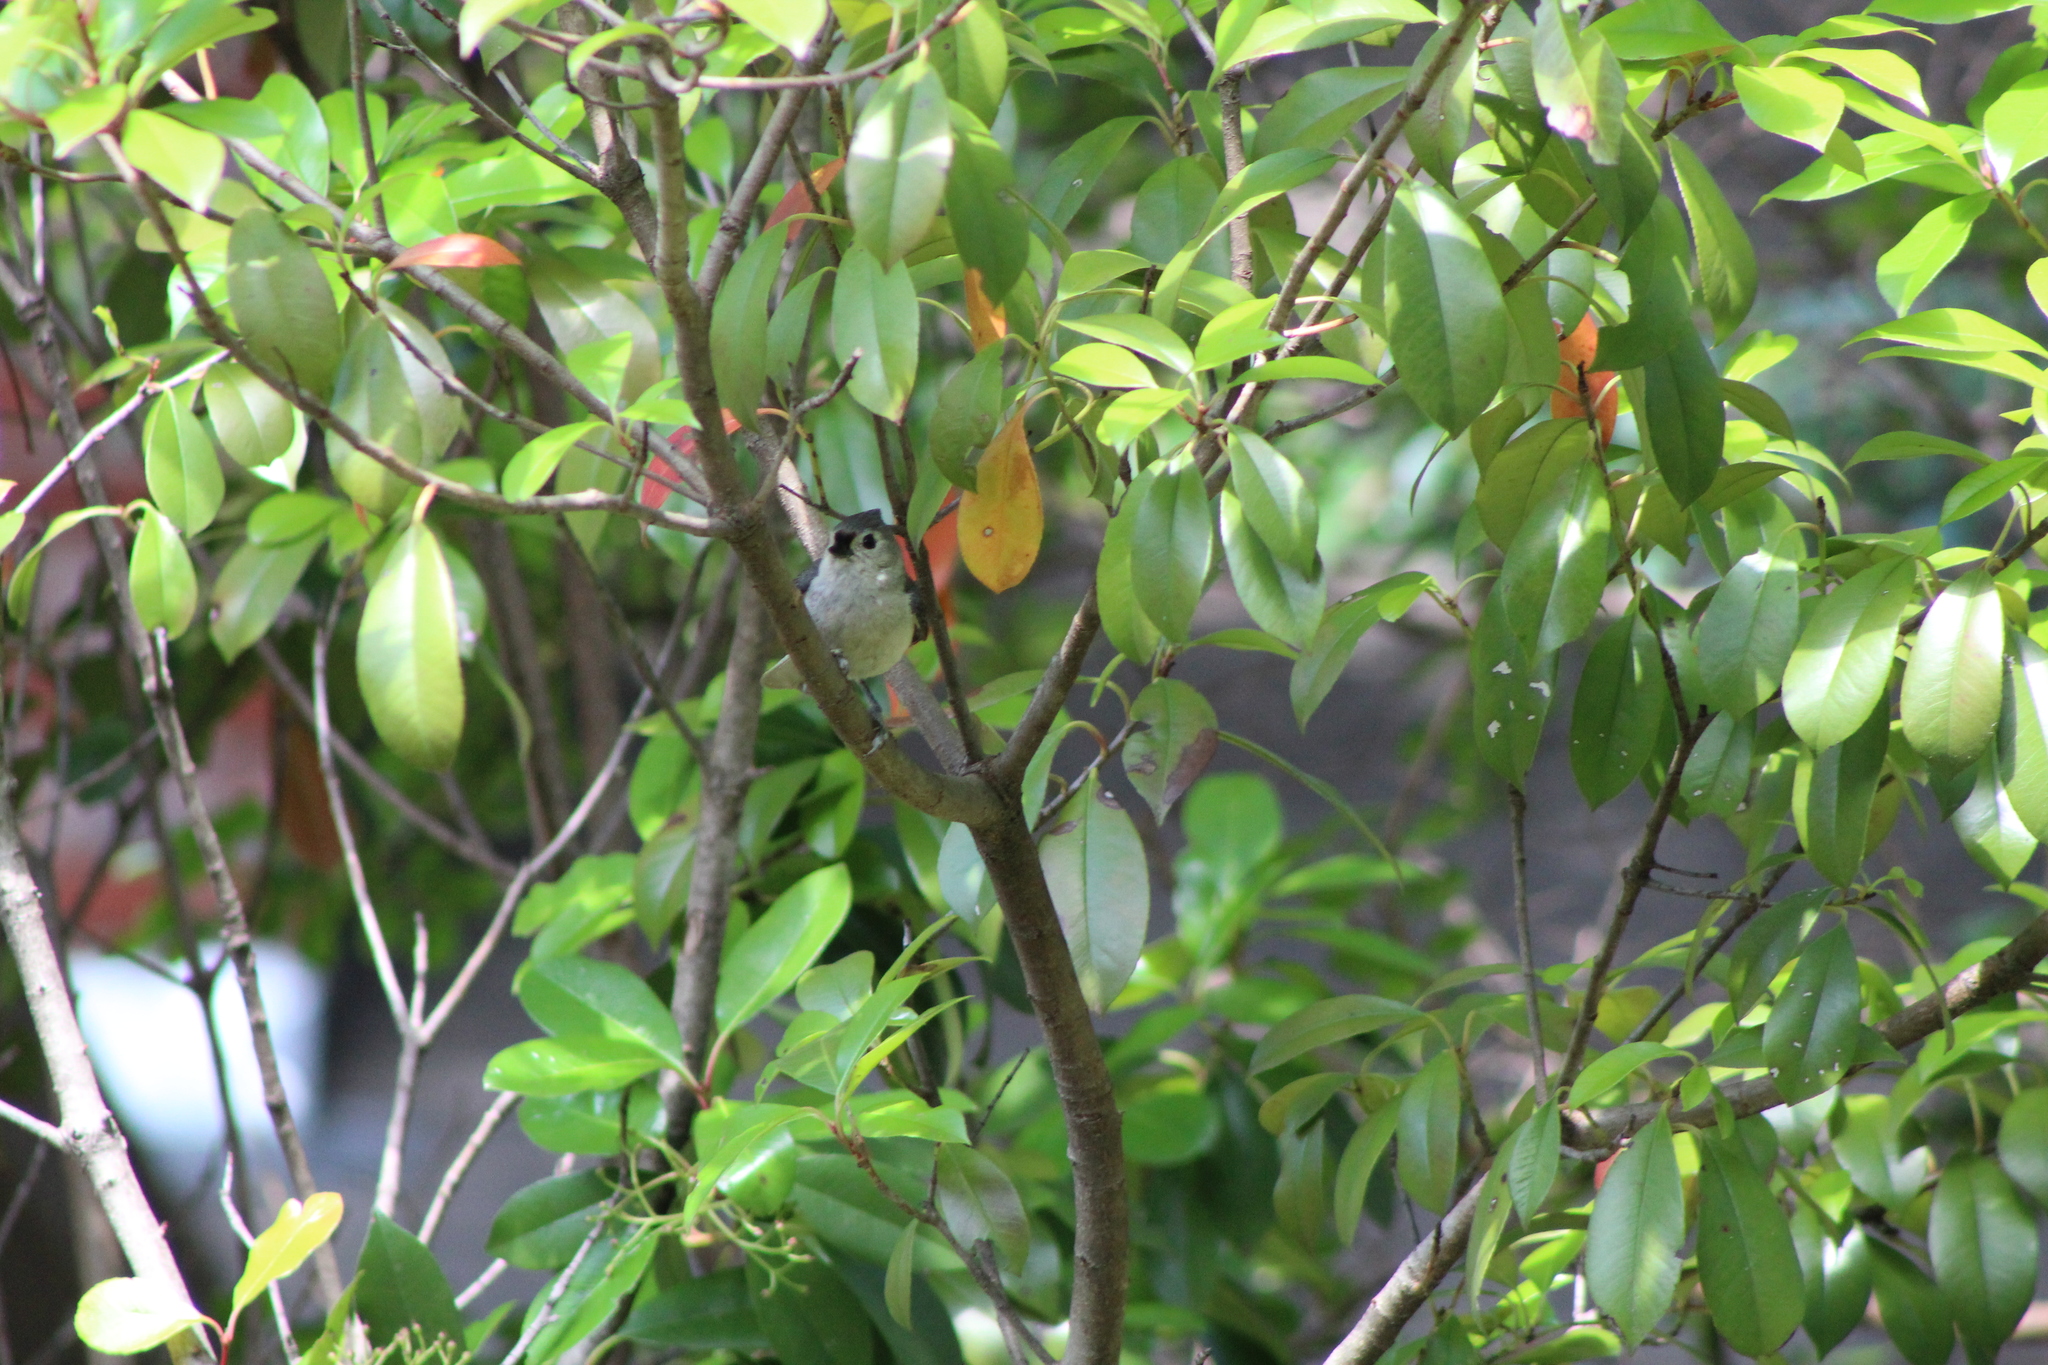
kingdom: Animalia
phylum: Chordata
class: Aves
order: Passeriformes
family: Paridae
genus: Baeolophus
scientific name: Baeolophus bicolor
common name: Tufted titmouse
